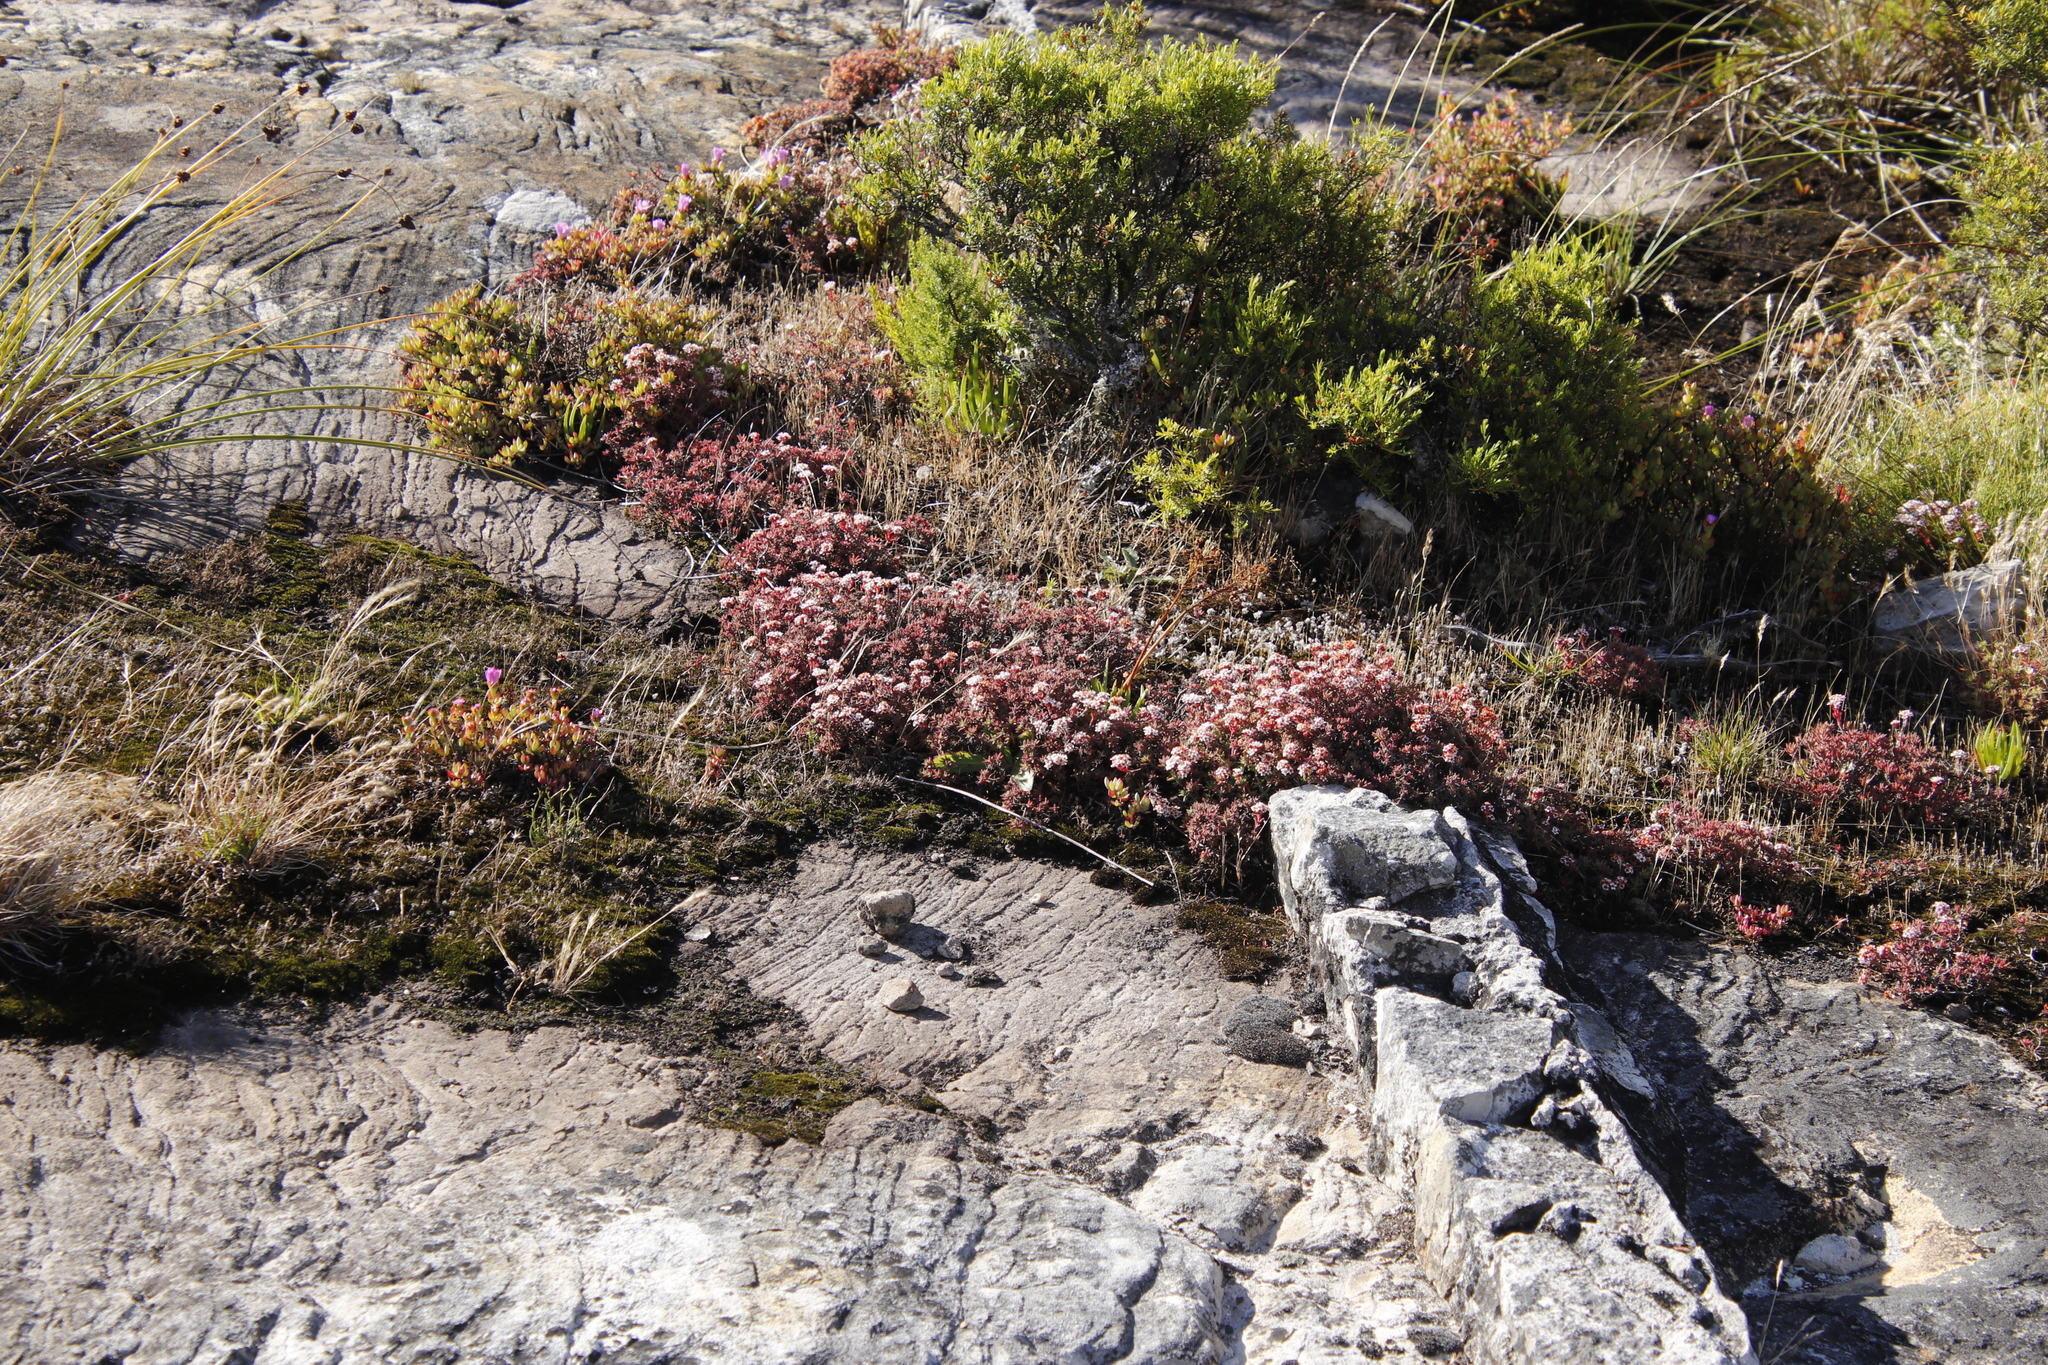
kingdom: Plantae
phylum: Tracheophyta
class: Magnoliopsida
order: Saxifragales
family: Crassulaceae
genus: Crassula
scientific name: Crassula pruinosa
